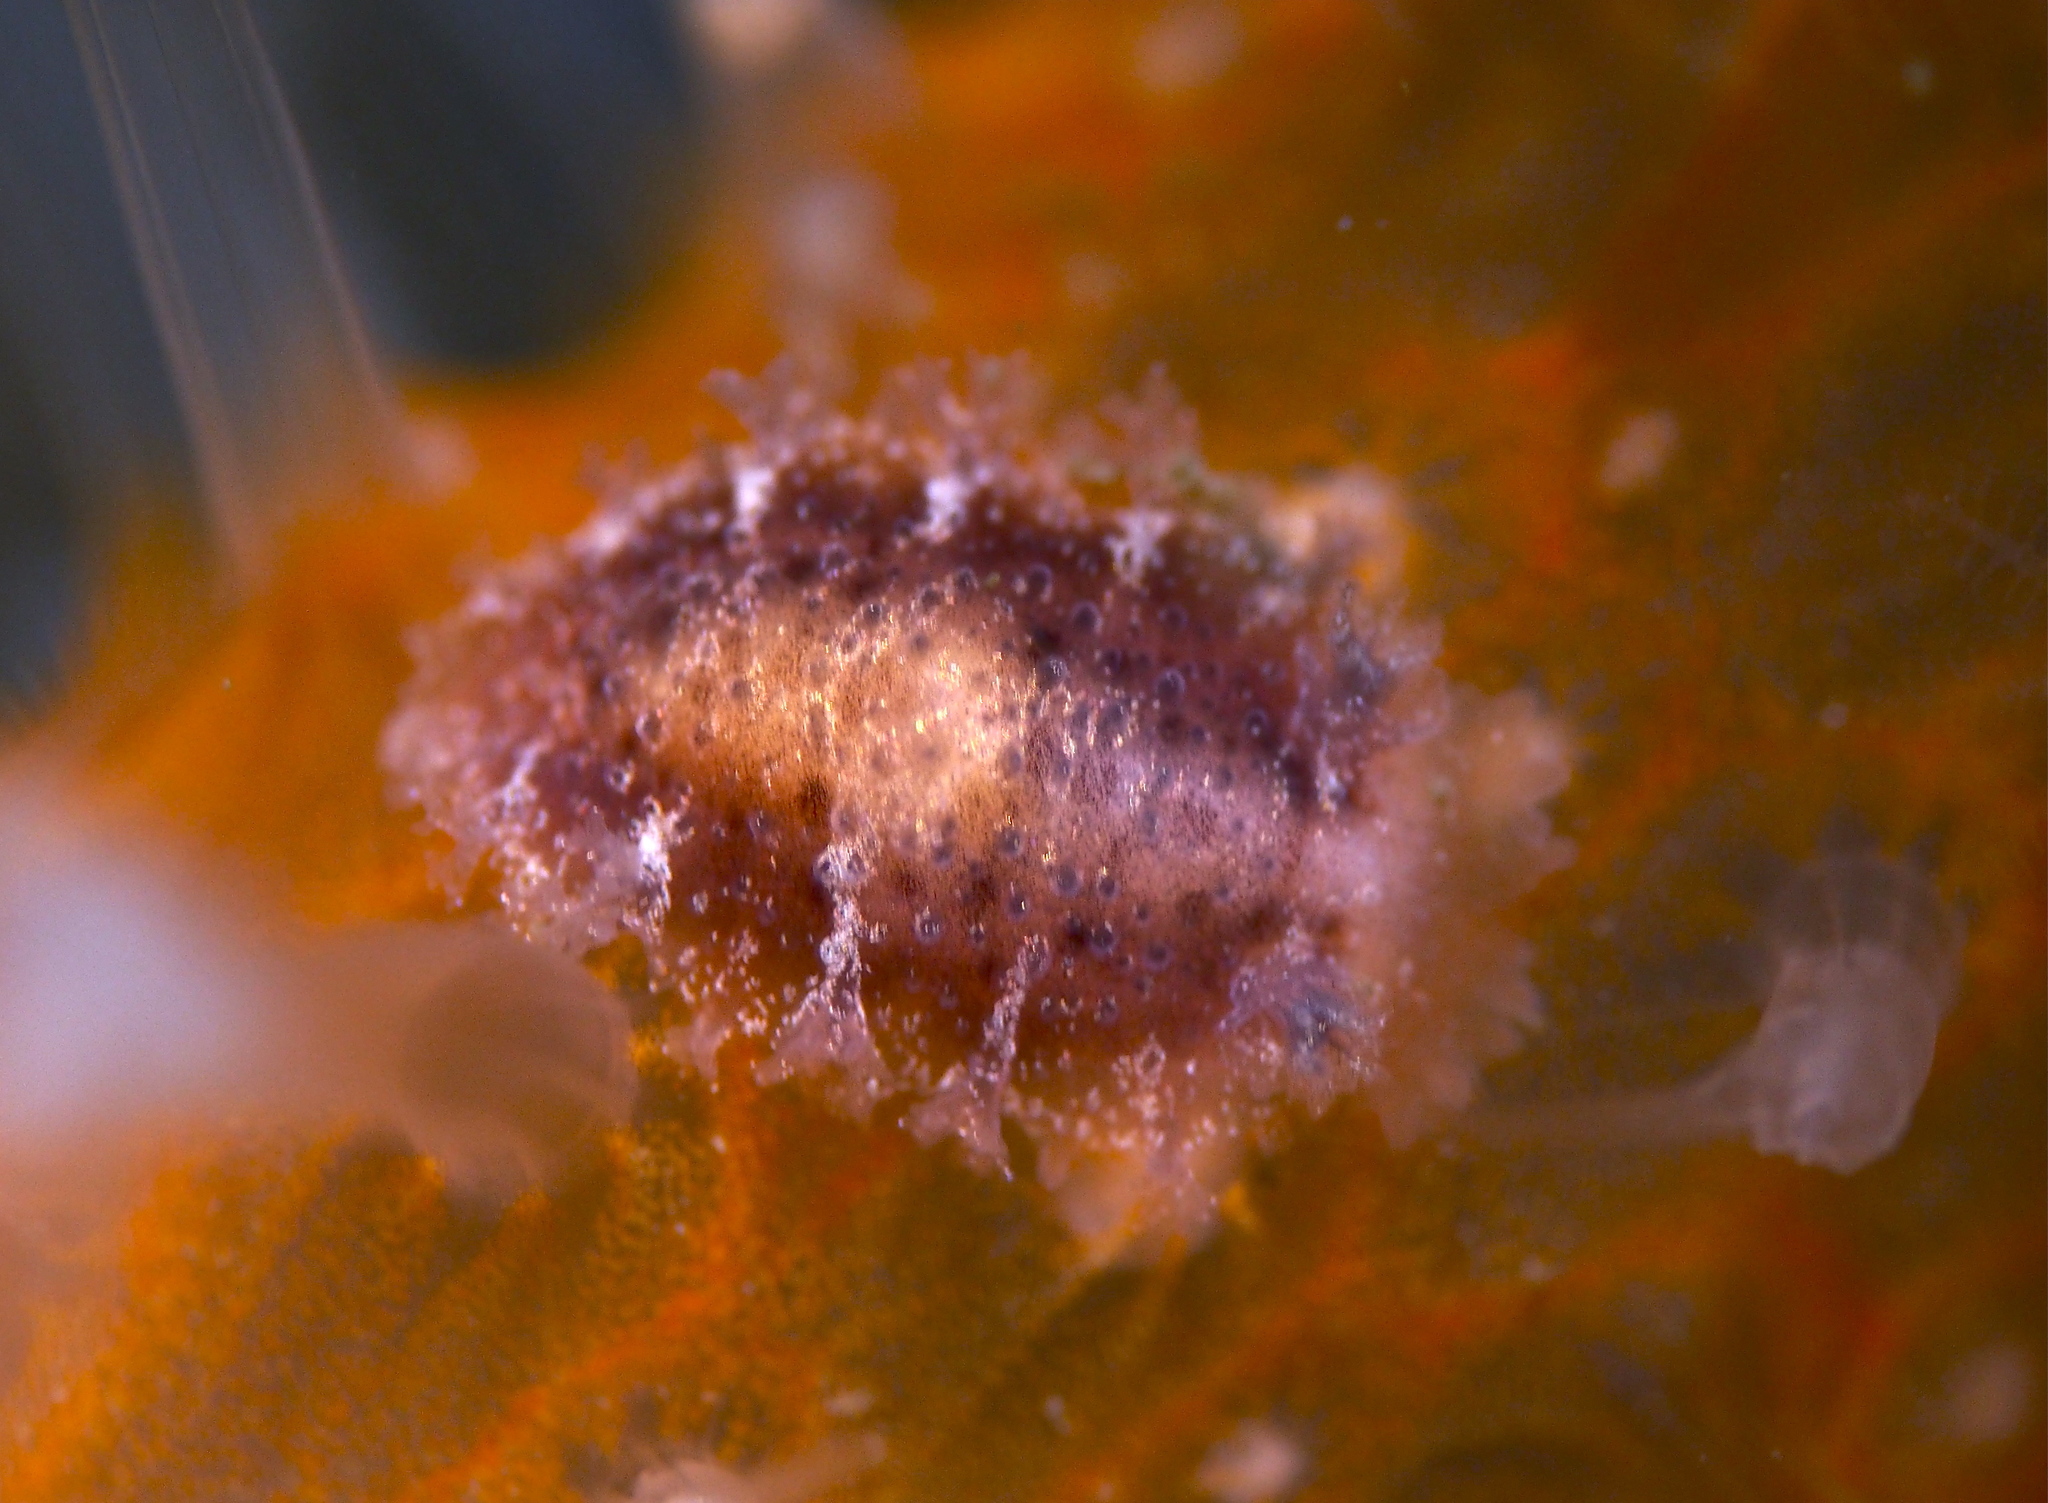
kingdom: Animalia
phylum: Mollusca
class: Gastropoda
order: Nudibranchia
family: Tritoniidae
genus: Tritonia
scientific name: Tritonia hombergii
